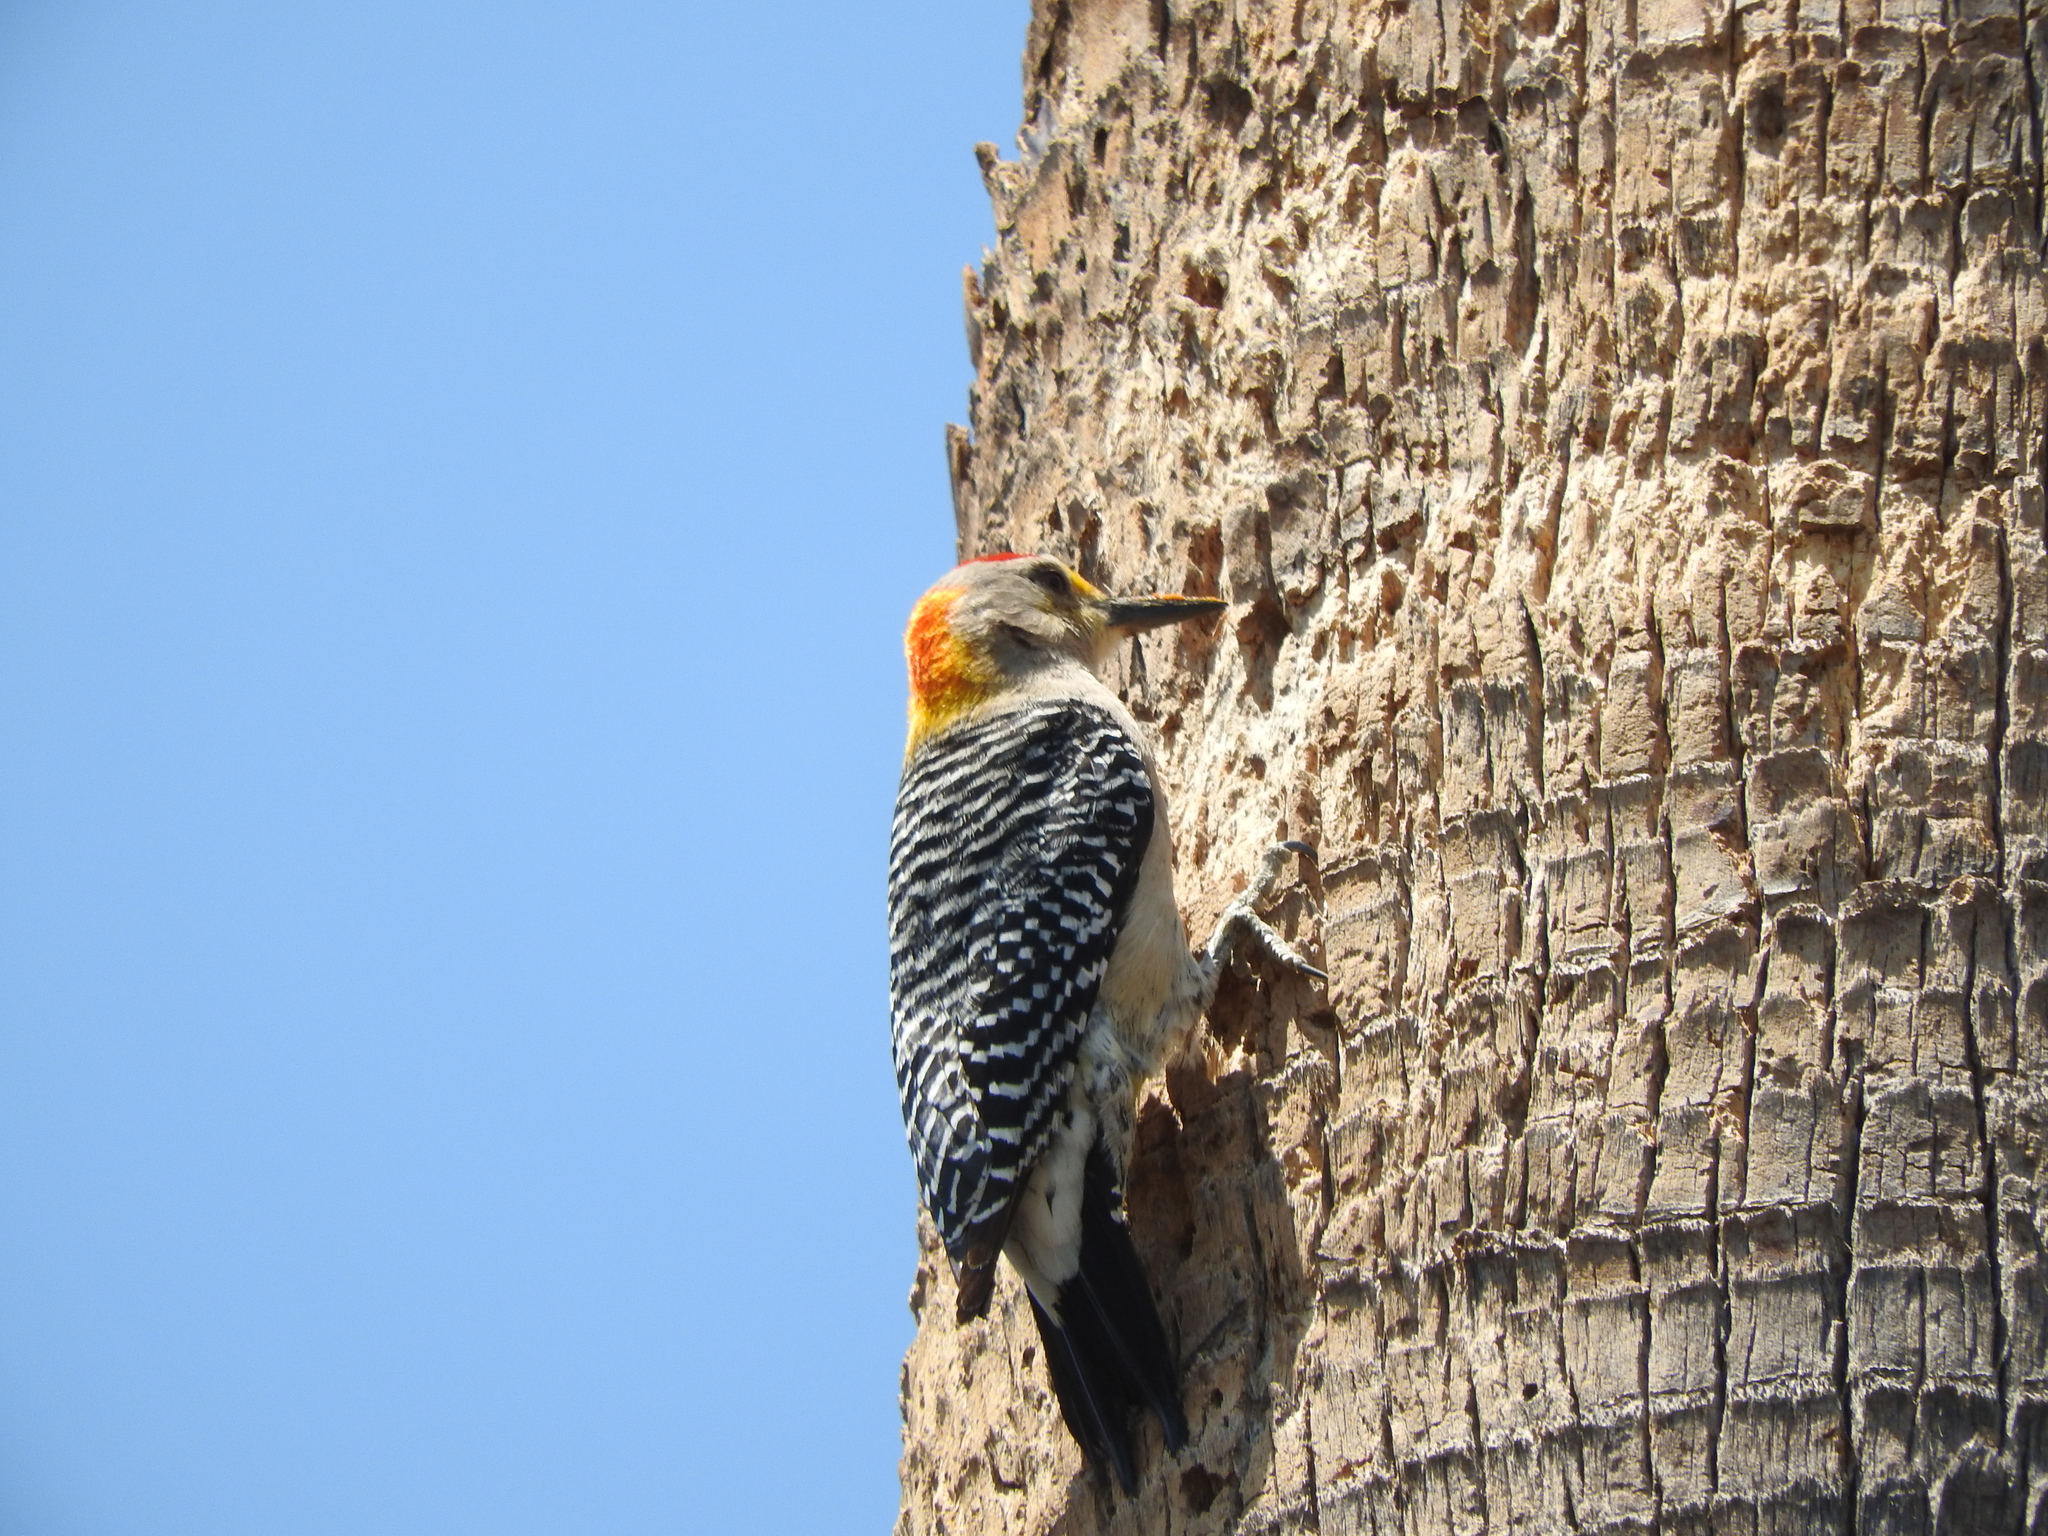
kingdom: Animalia
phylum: Chordata
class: Aves
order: Piciformes
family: Picidae
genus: Melanerpes
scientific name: Melanerpes aurifrons
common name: Golden-fronted woodpecker
